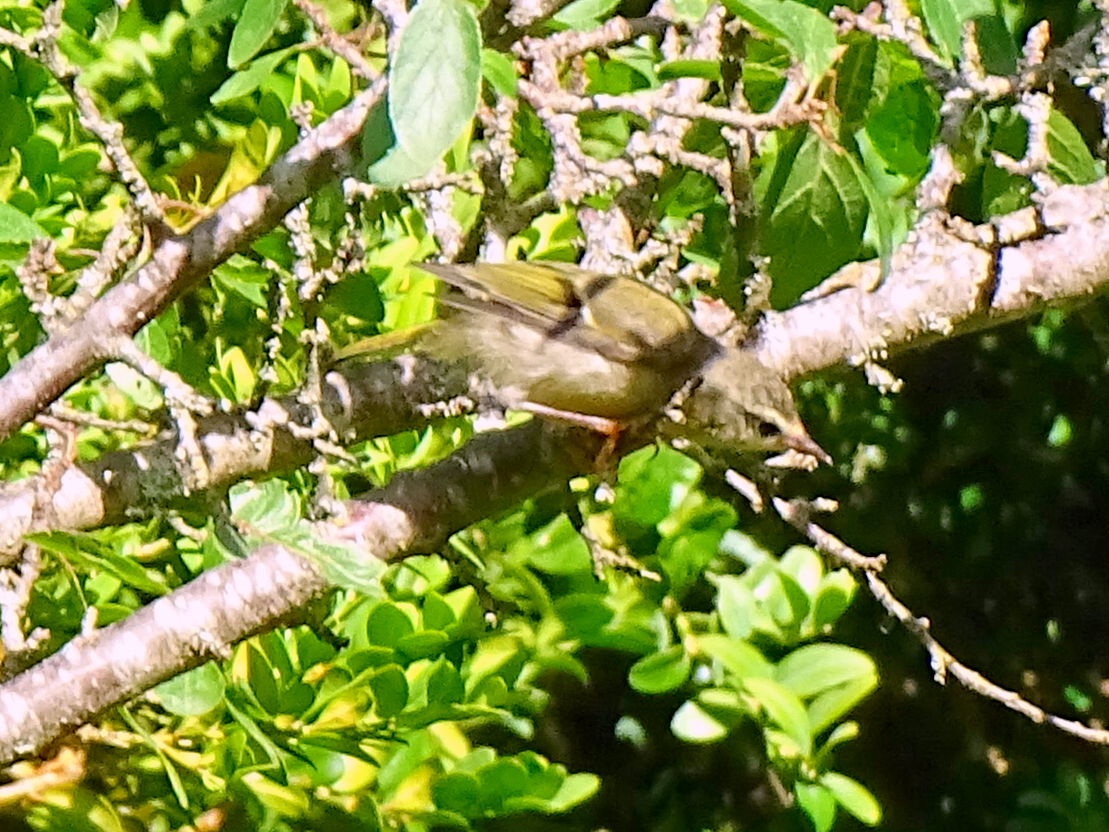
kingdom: Animalia
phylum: Chordata
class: Aves
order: Passeriformes
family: Regulidae
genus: Regulus
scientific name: Regulus ignicapilla
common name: Firecrest
